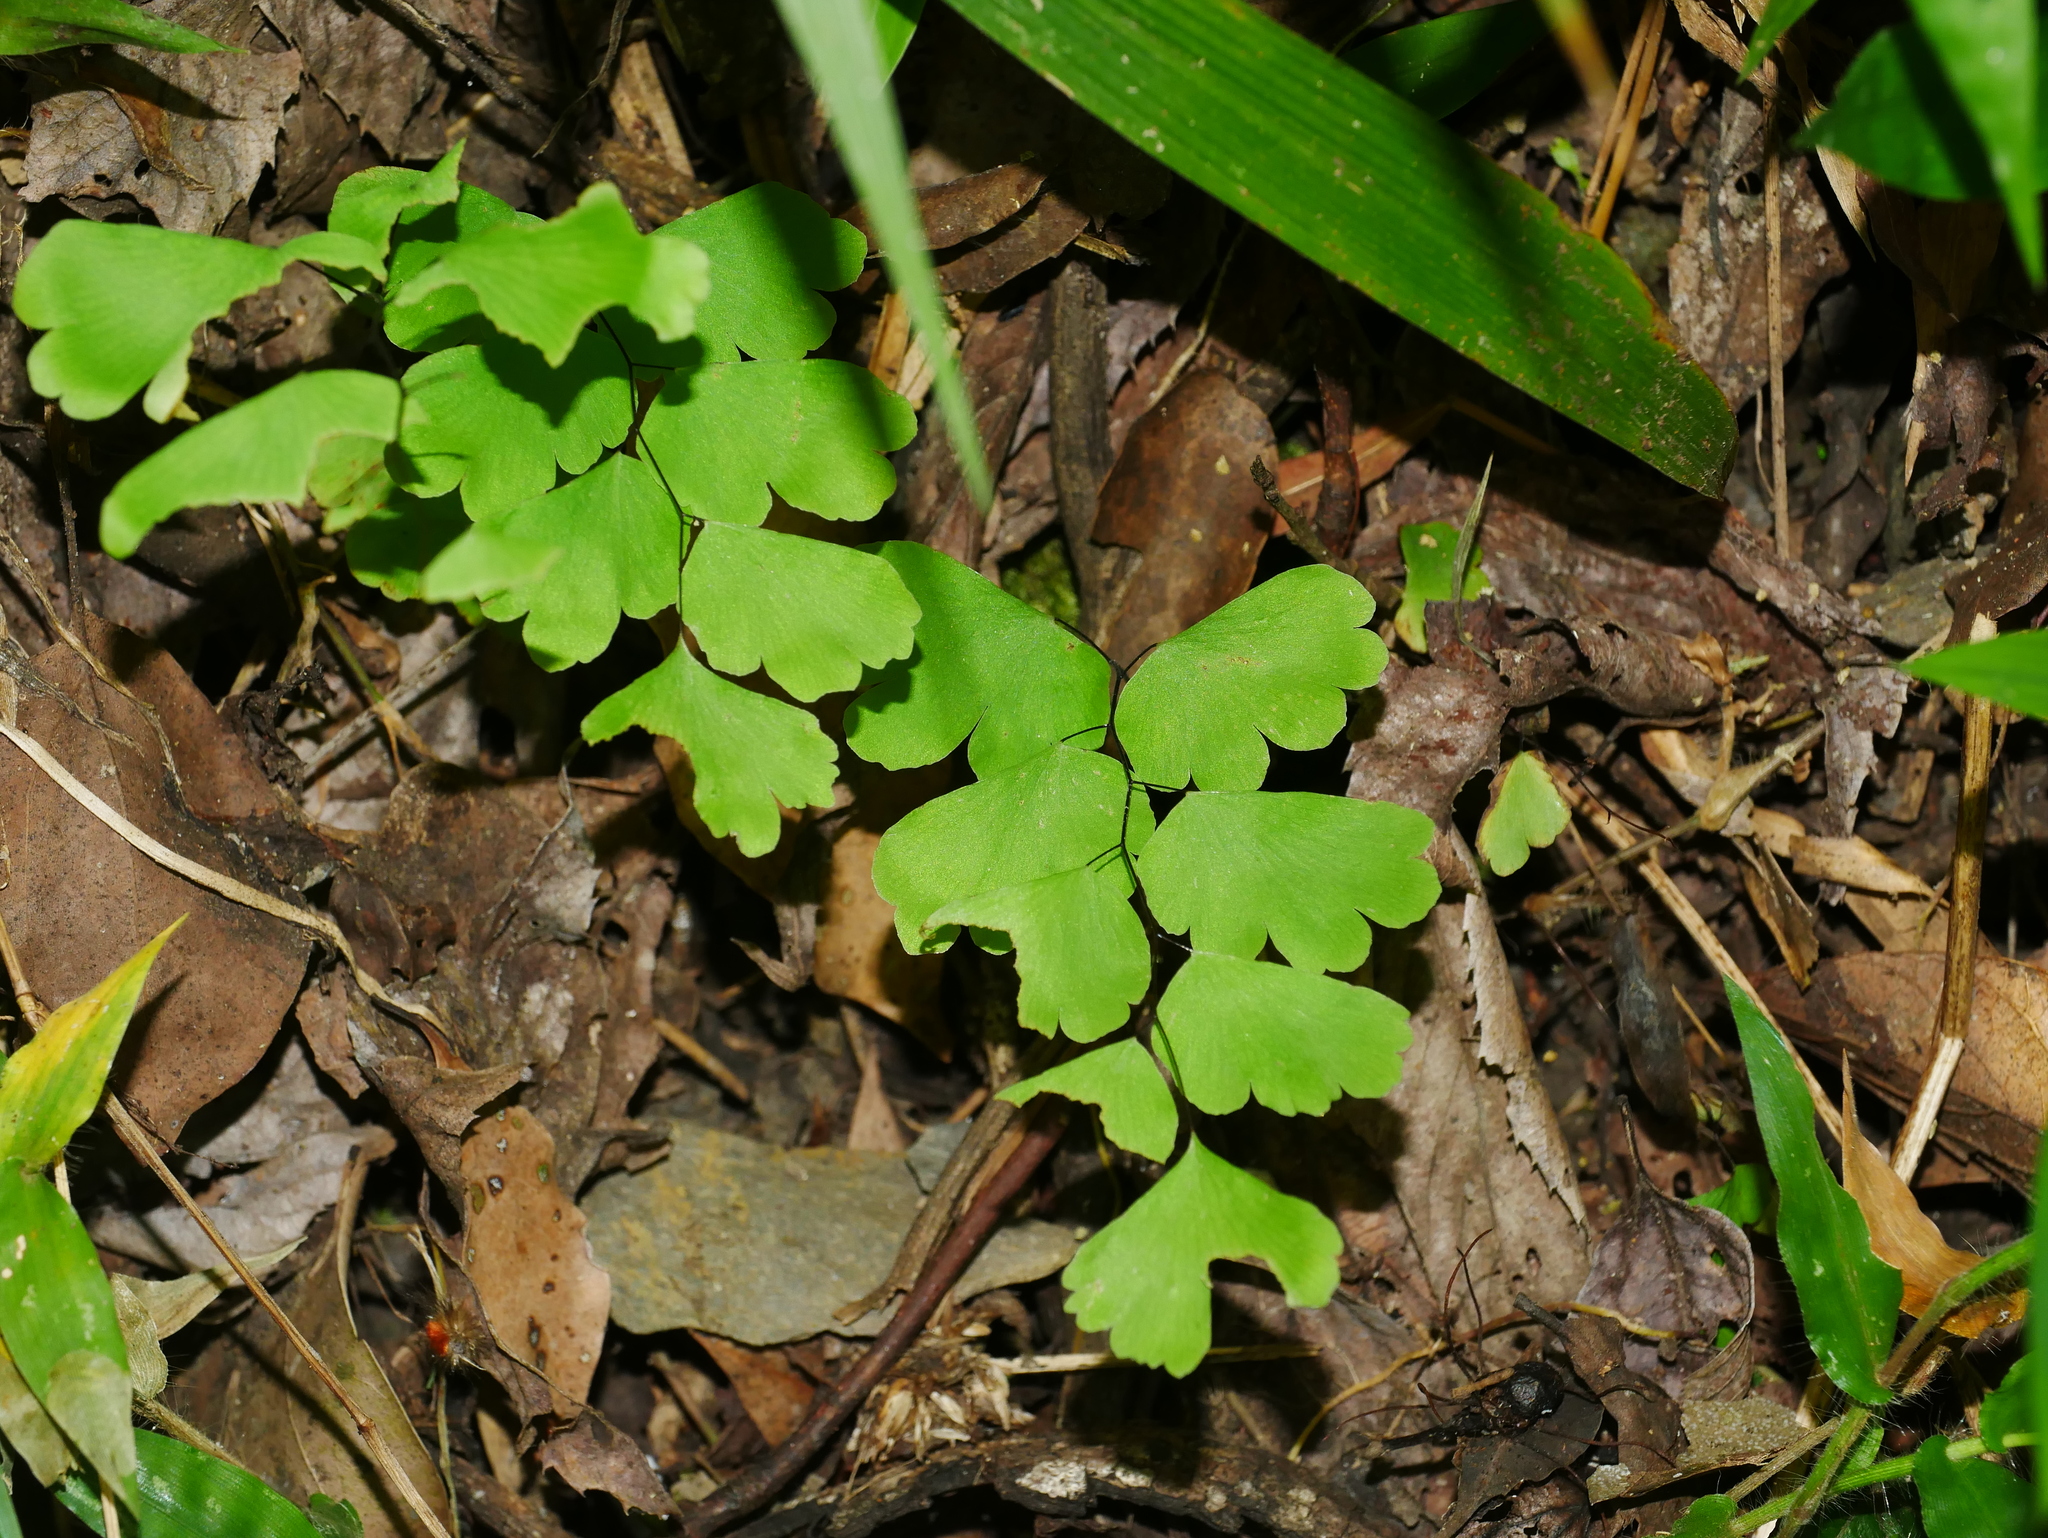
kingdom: Plantae
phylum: Tracheophyta
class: Polypodiopsida
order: Polypodiales
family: Pteridaceae
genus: Adiantum
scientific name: Adiantum menglianense
